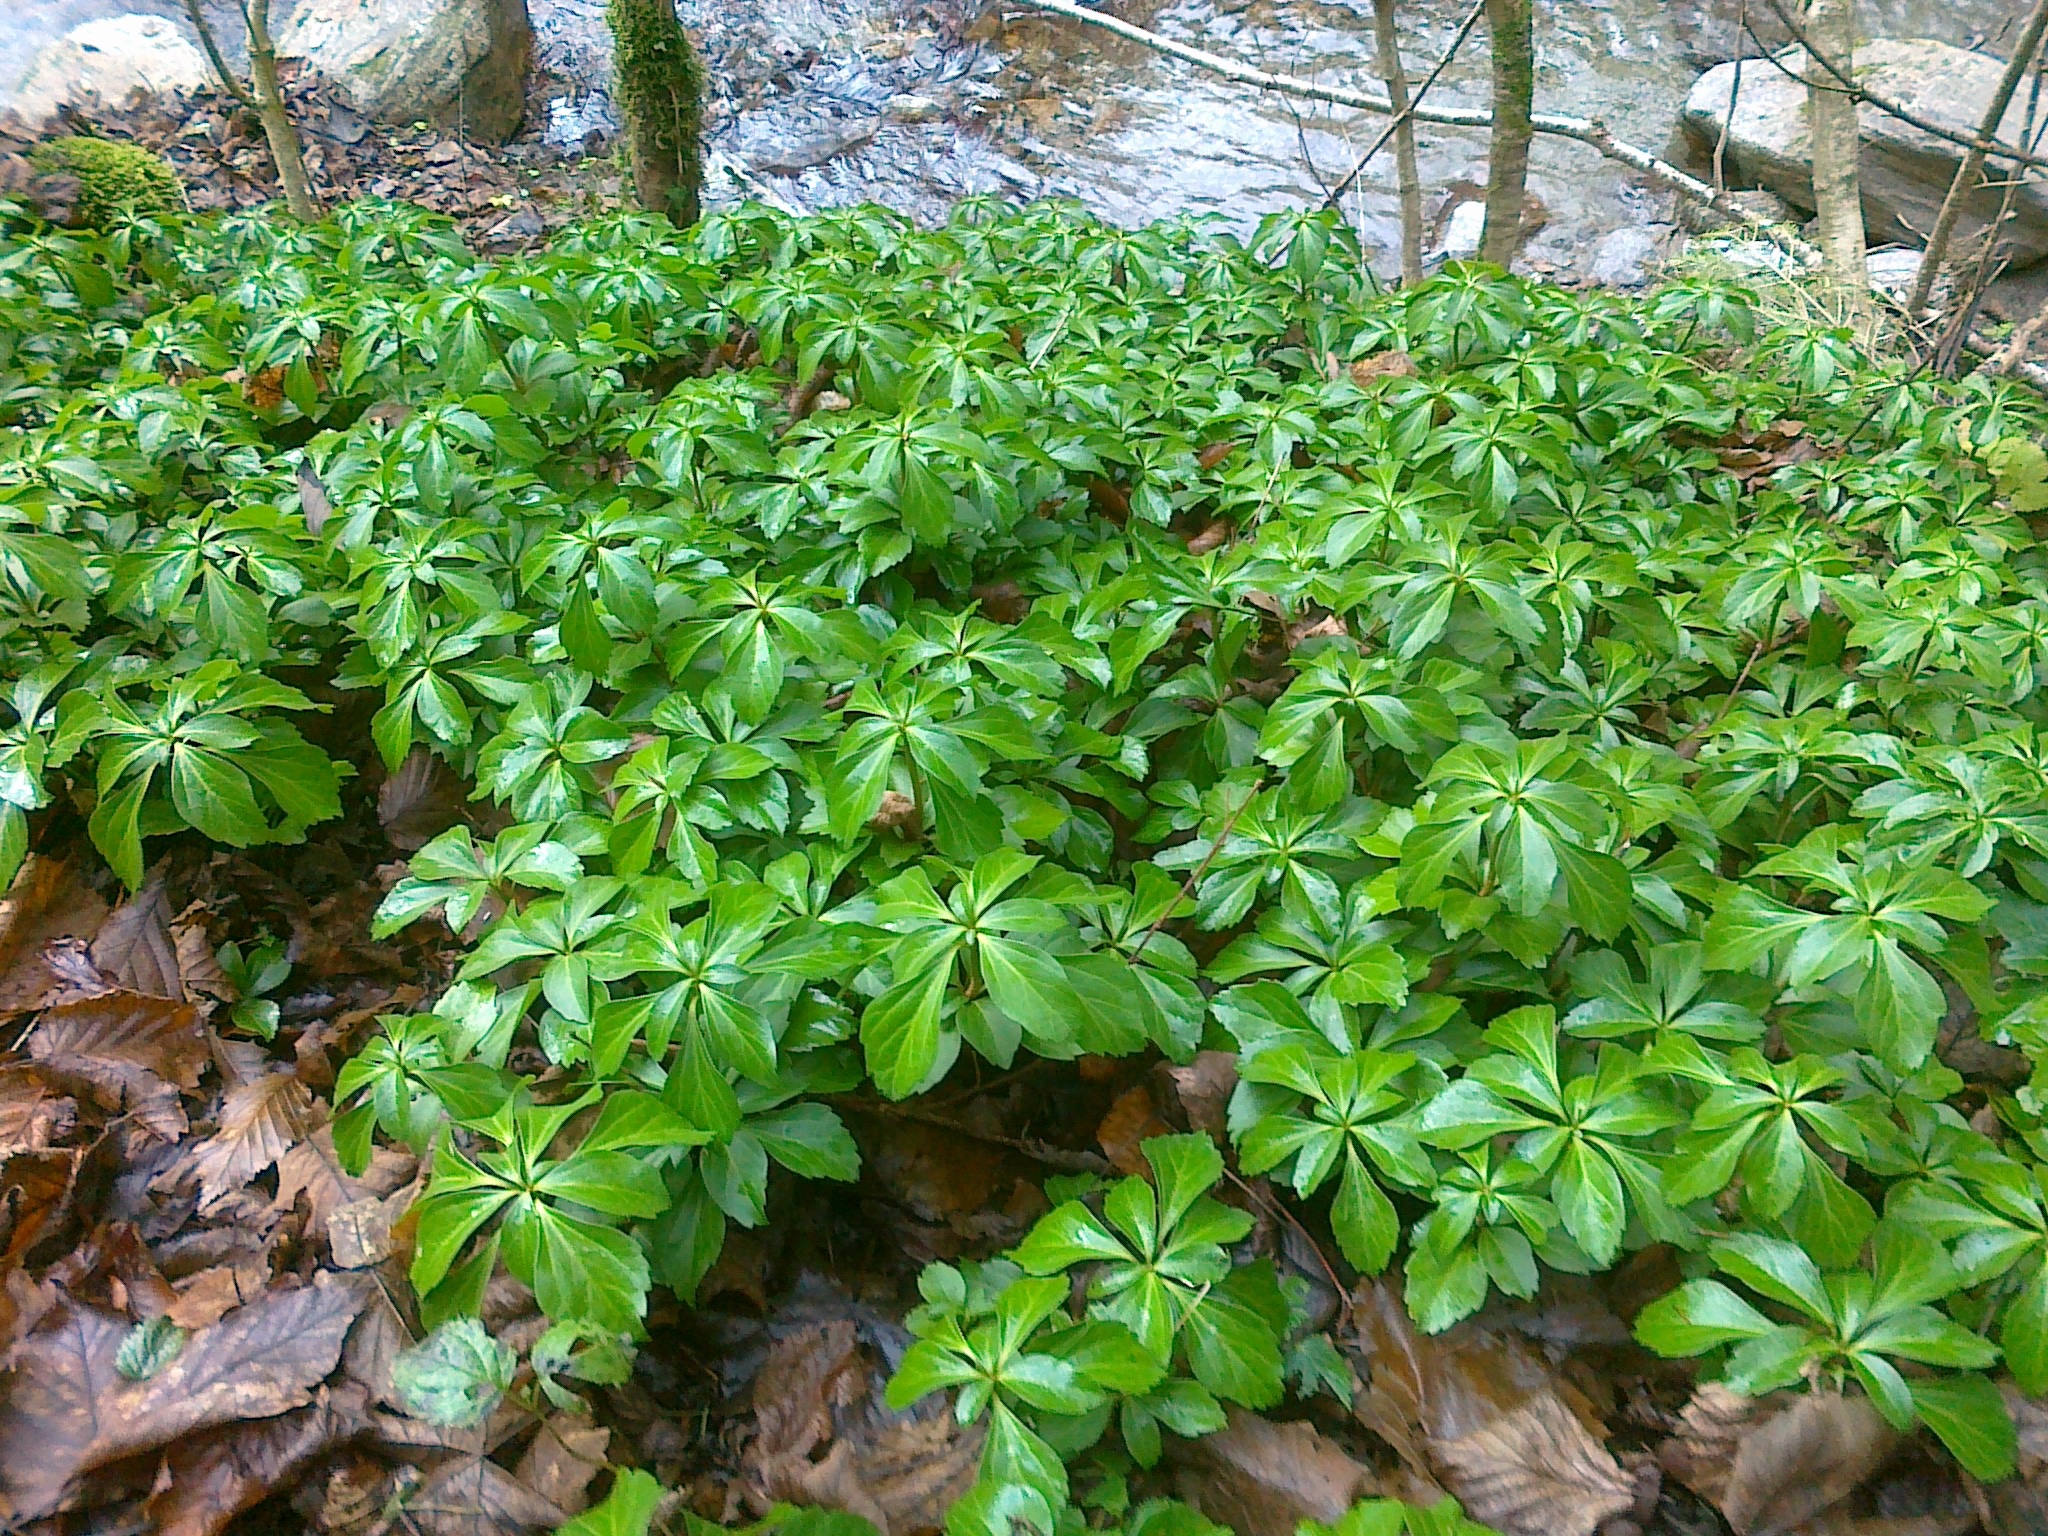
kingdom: Plantae
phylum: Tracheophyta
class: Magnoliopsida
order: Buxales
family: Buxaceae
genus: Pachysandra
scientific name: Pachysandra terminalis
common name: Japanese pachysandra
